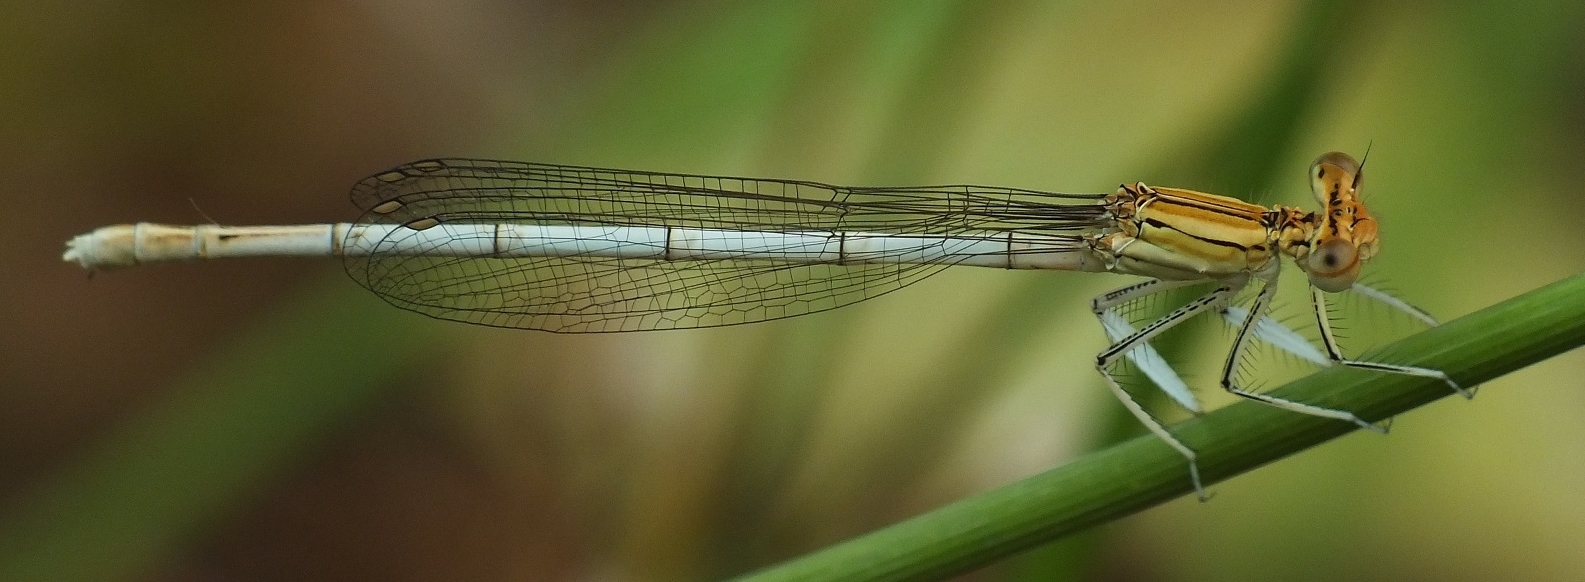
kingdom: Animalia
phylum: Arthropoda
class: Insecta
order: Odonata
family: Platycnemididae
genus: Platycnemis
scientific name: Platycnemis pennipes
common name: White-legged damselfly
